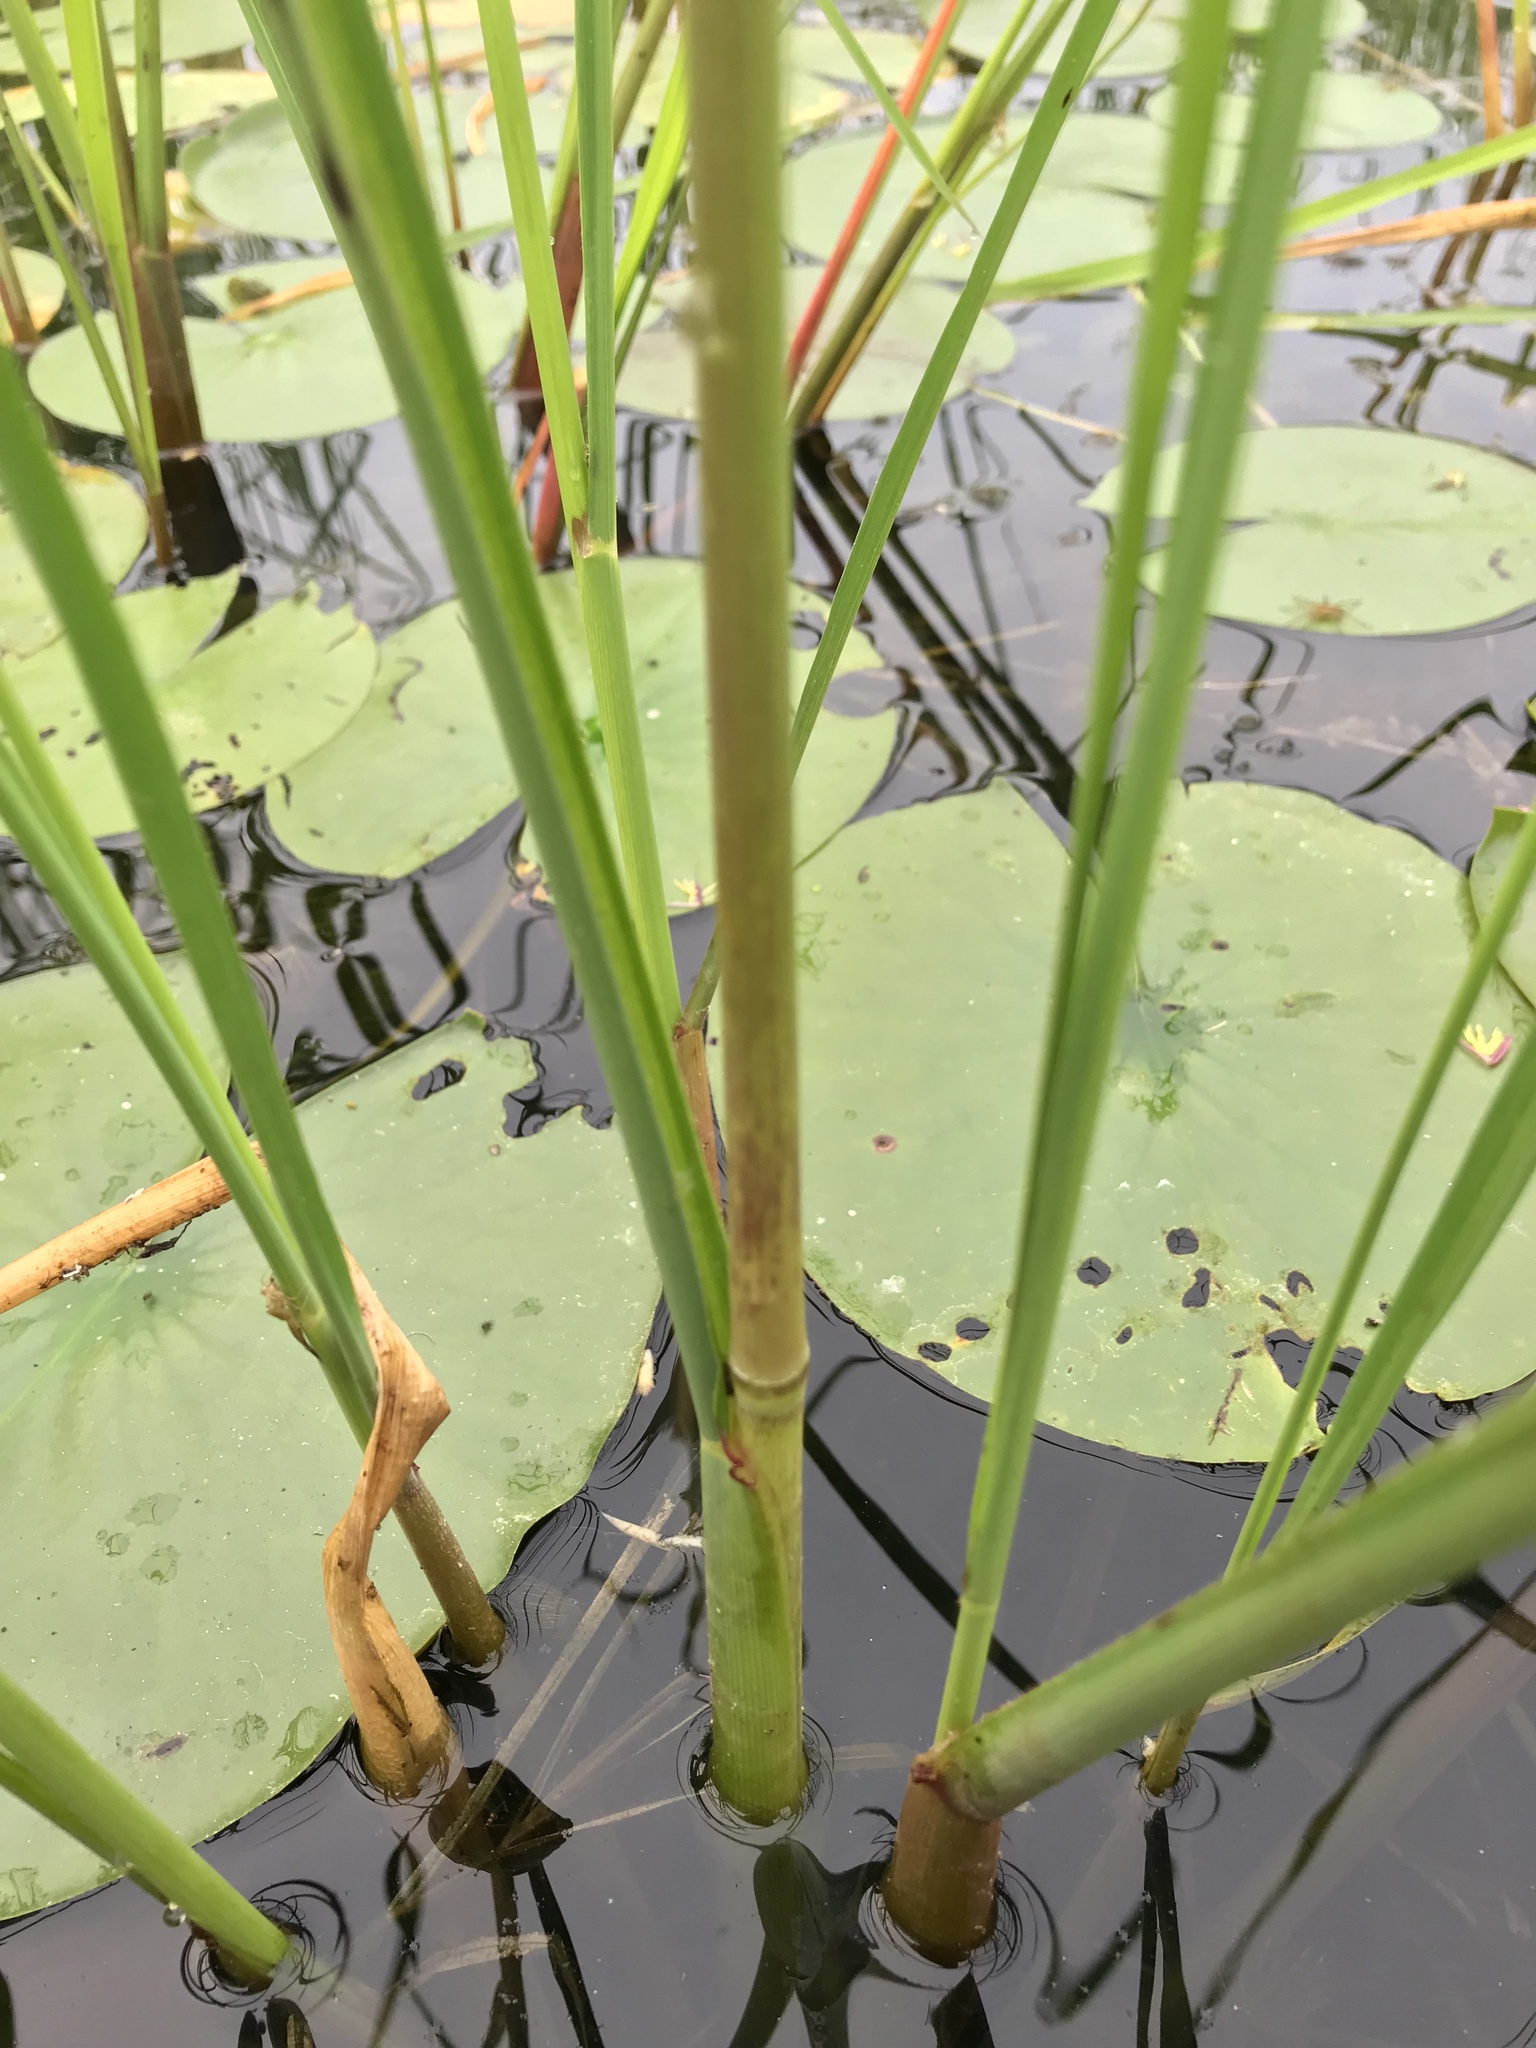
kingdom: Plantae
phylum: Tracheophyta
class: Liliopsida
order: Poales
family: Poaceae
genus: Zizania
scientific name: Zizania palustris
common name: Northern wild rice
